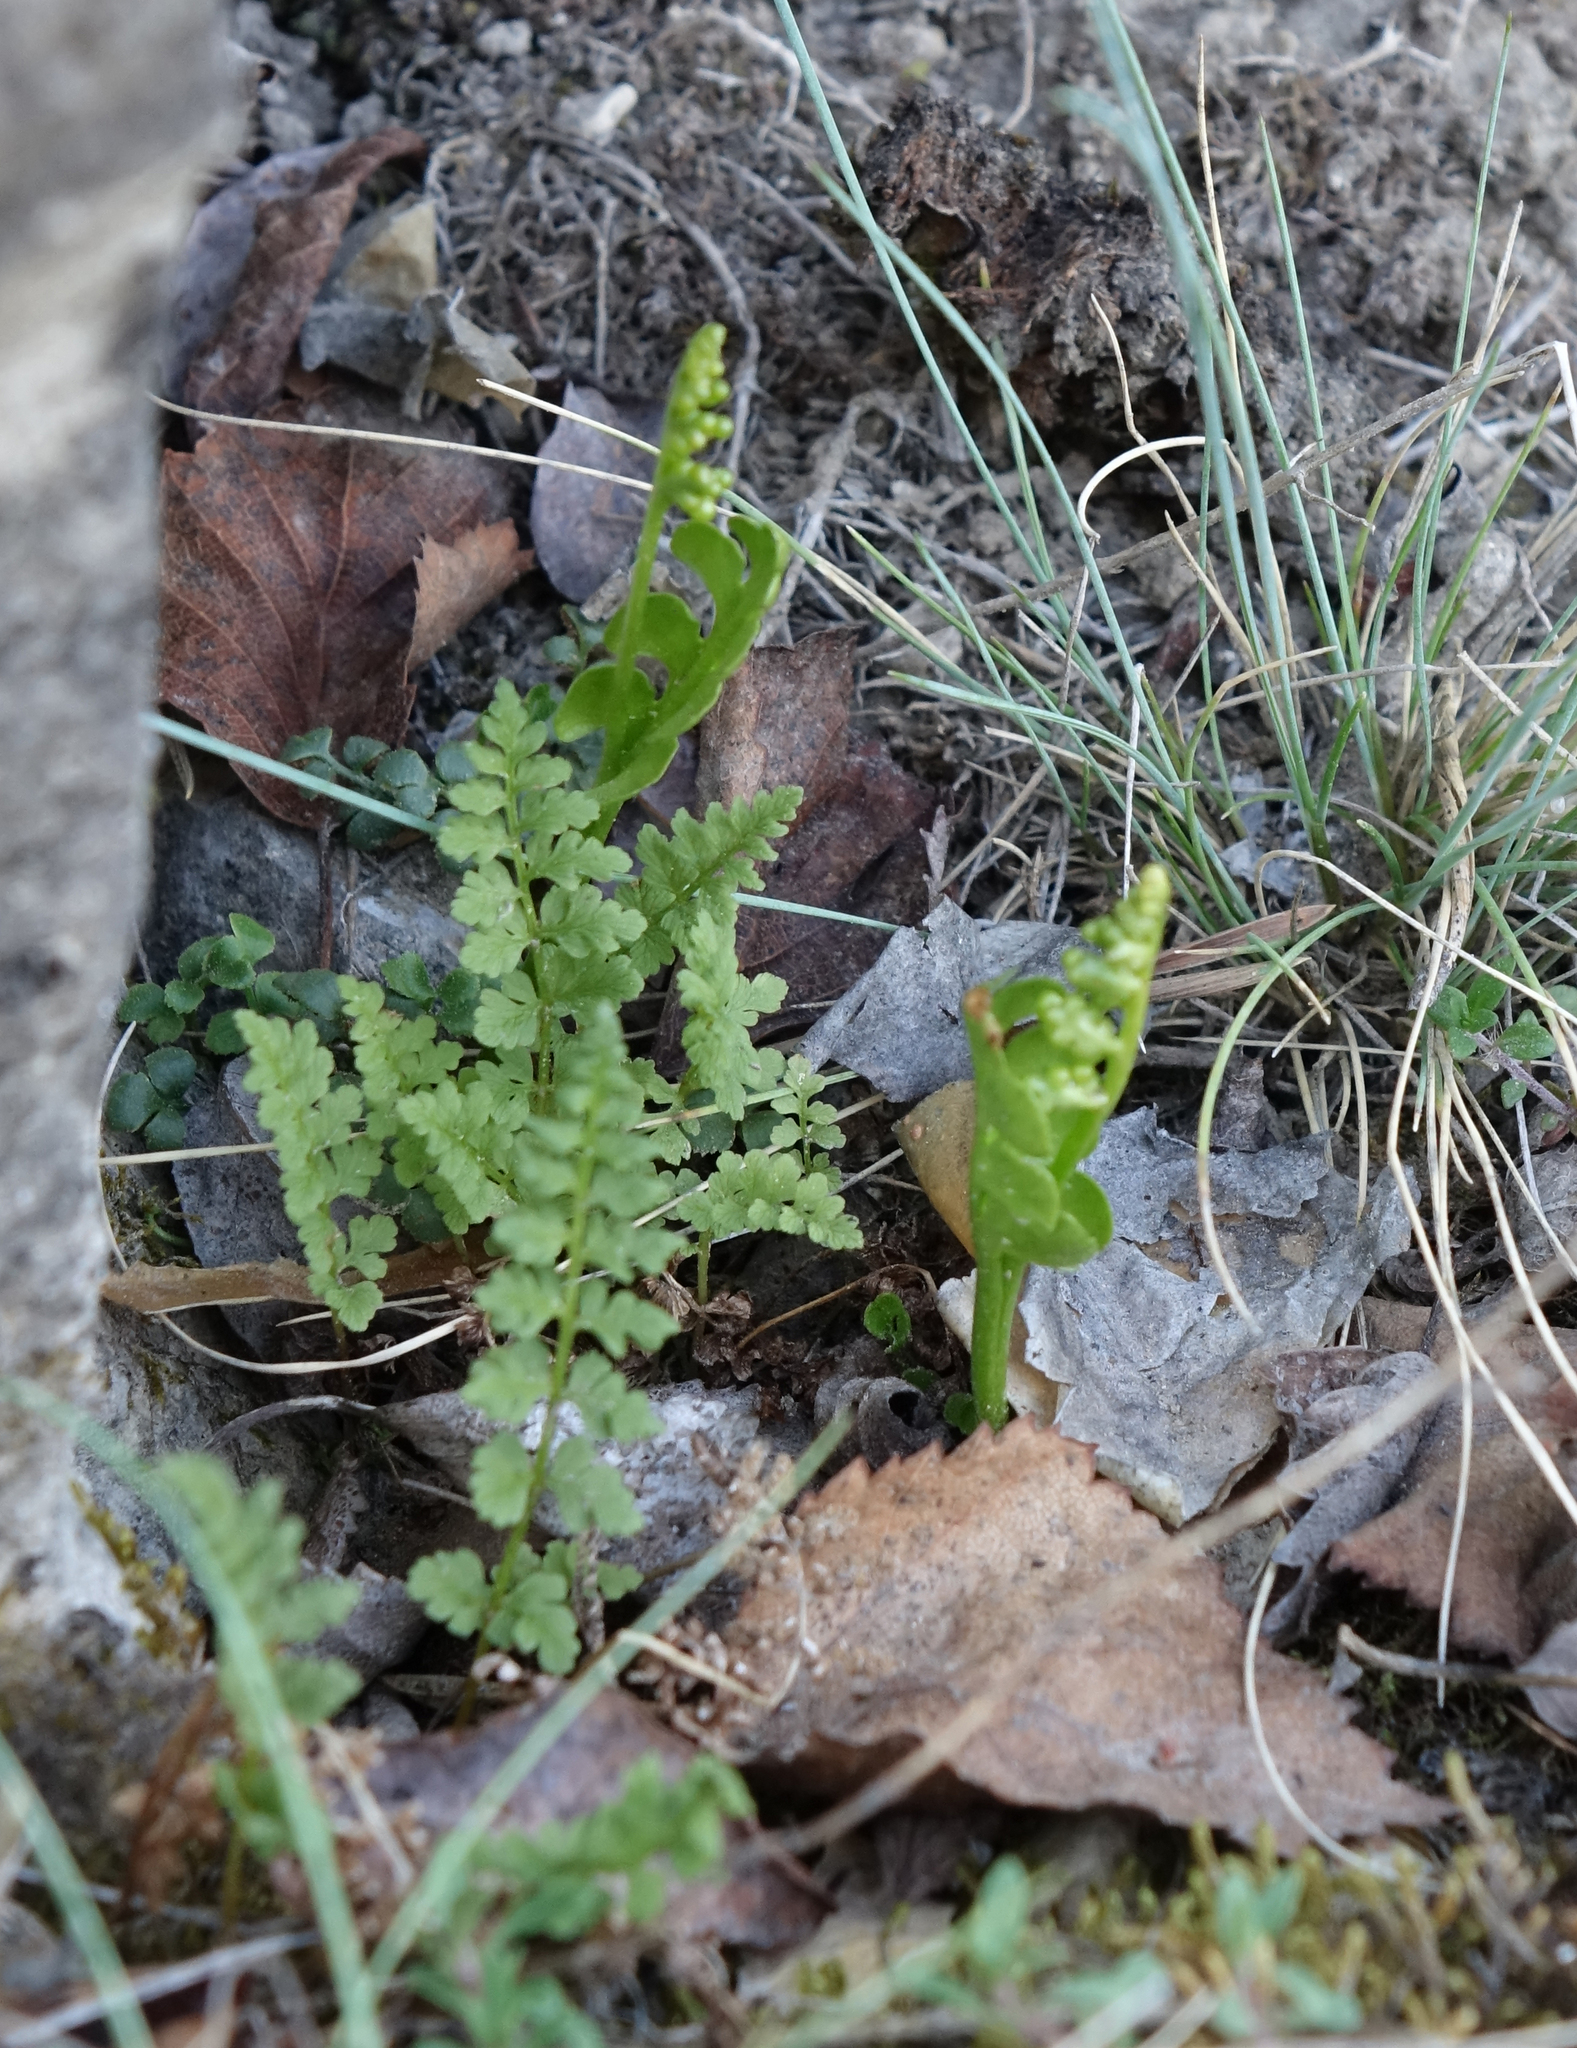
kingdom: Plantae
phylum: Tracheophyta
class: Polypodiopsida
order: Ophioglossales
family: Ophioglossaceae
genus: Botrychium
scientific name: Botrychium lunaria
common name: Moonwort
